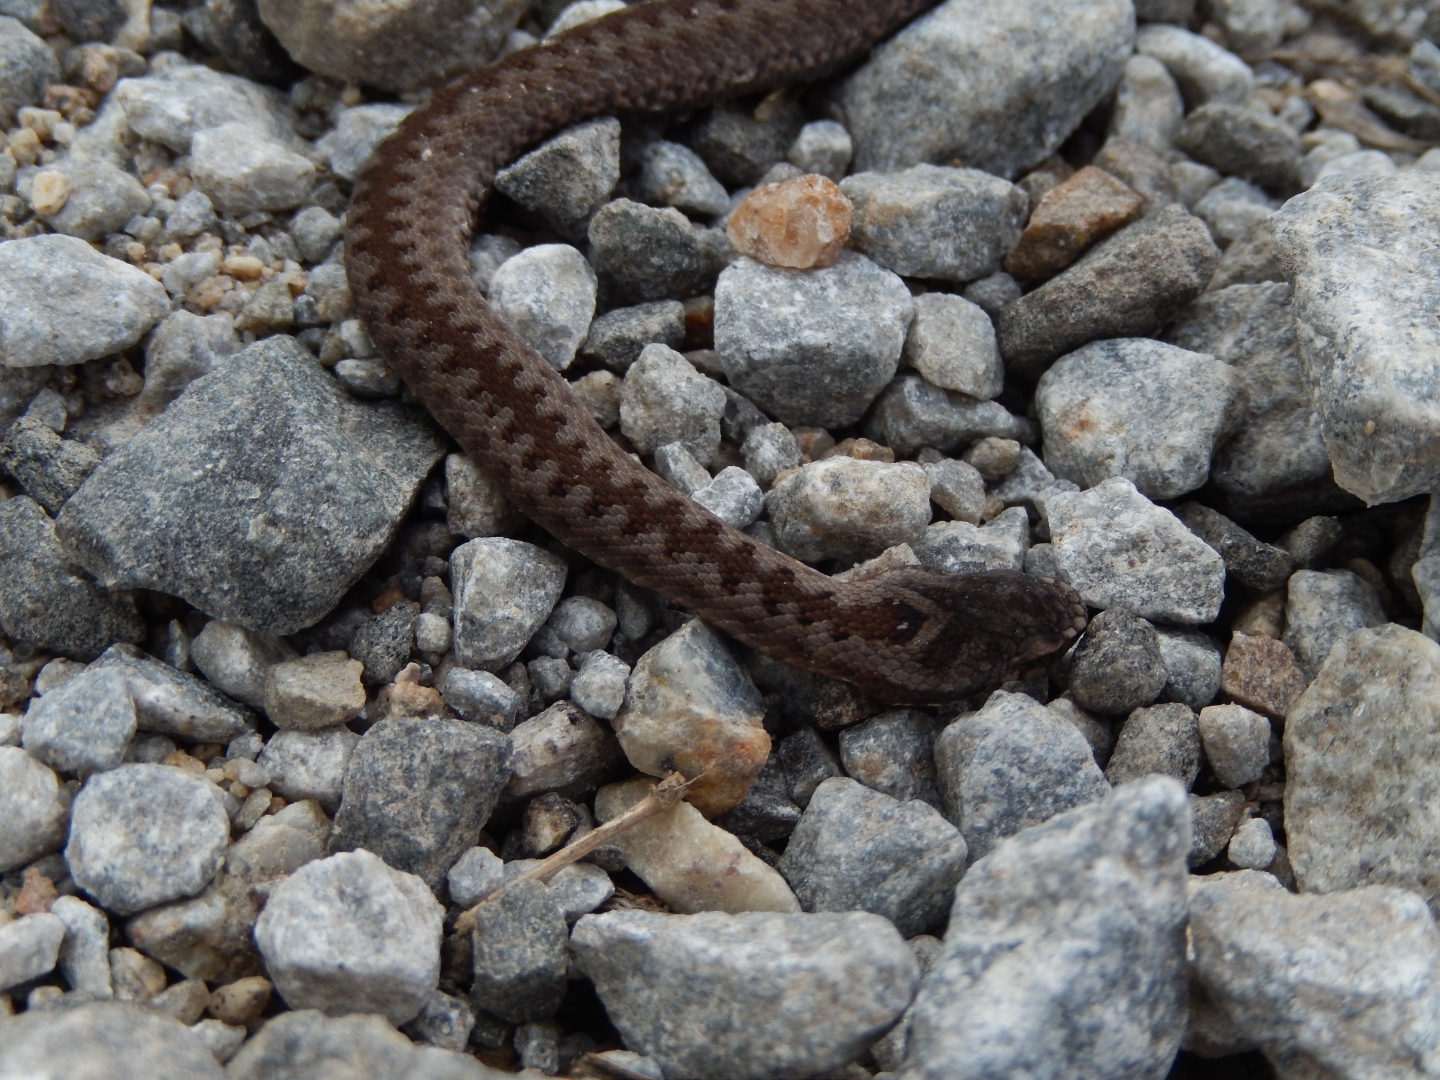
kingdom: Animalia
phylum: Chordata
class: Squamata
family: Viperidae
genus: Vipera
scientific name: Vipera berus
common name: Adder
